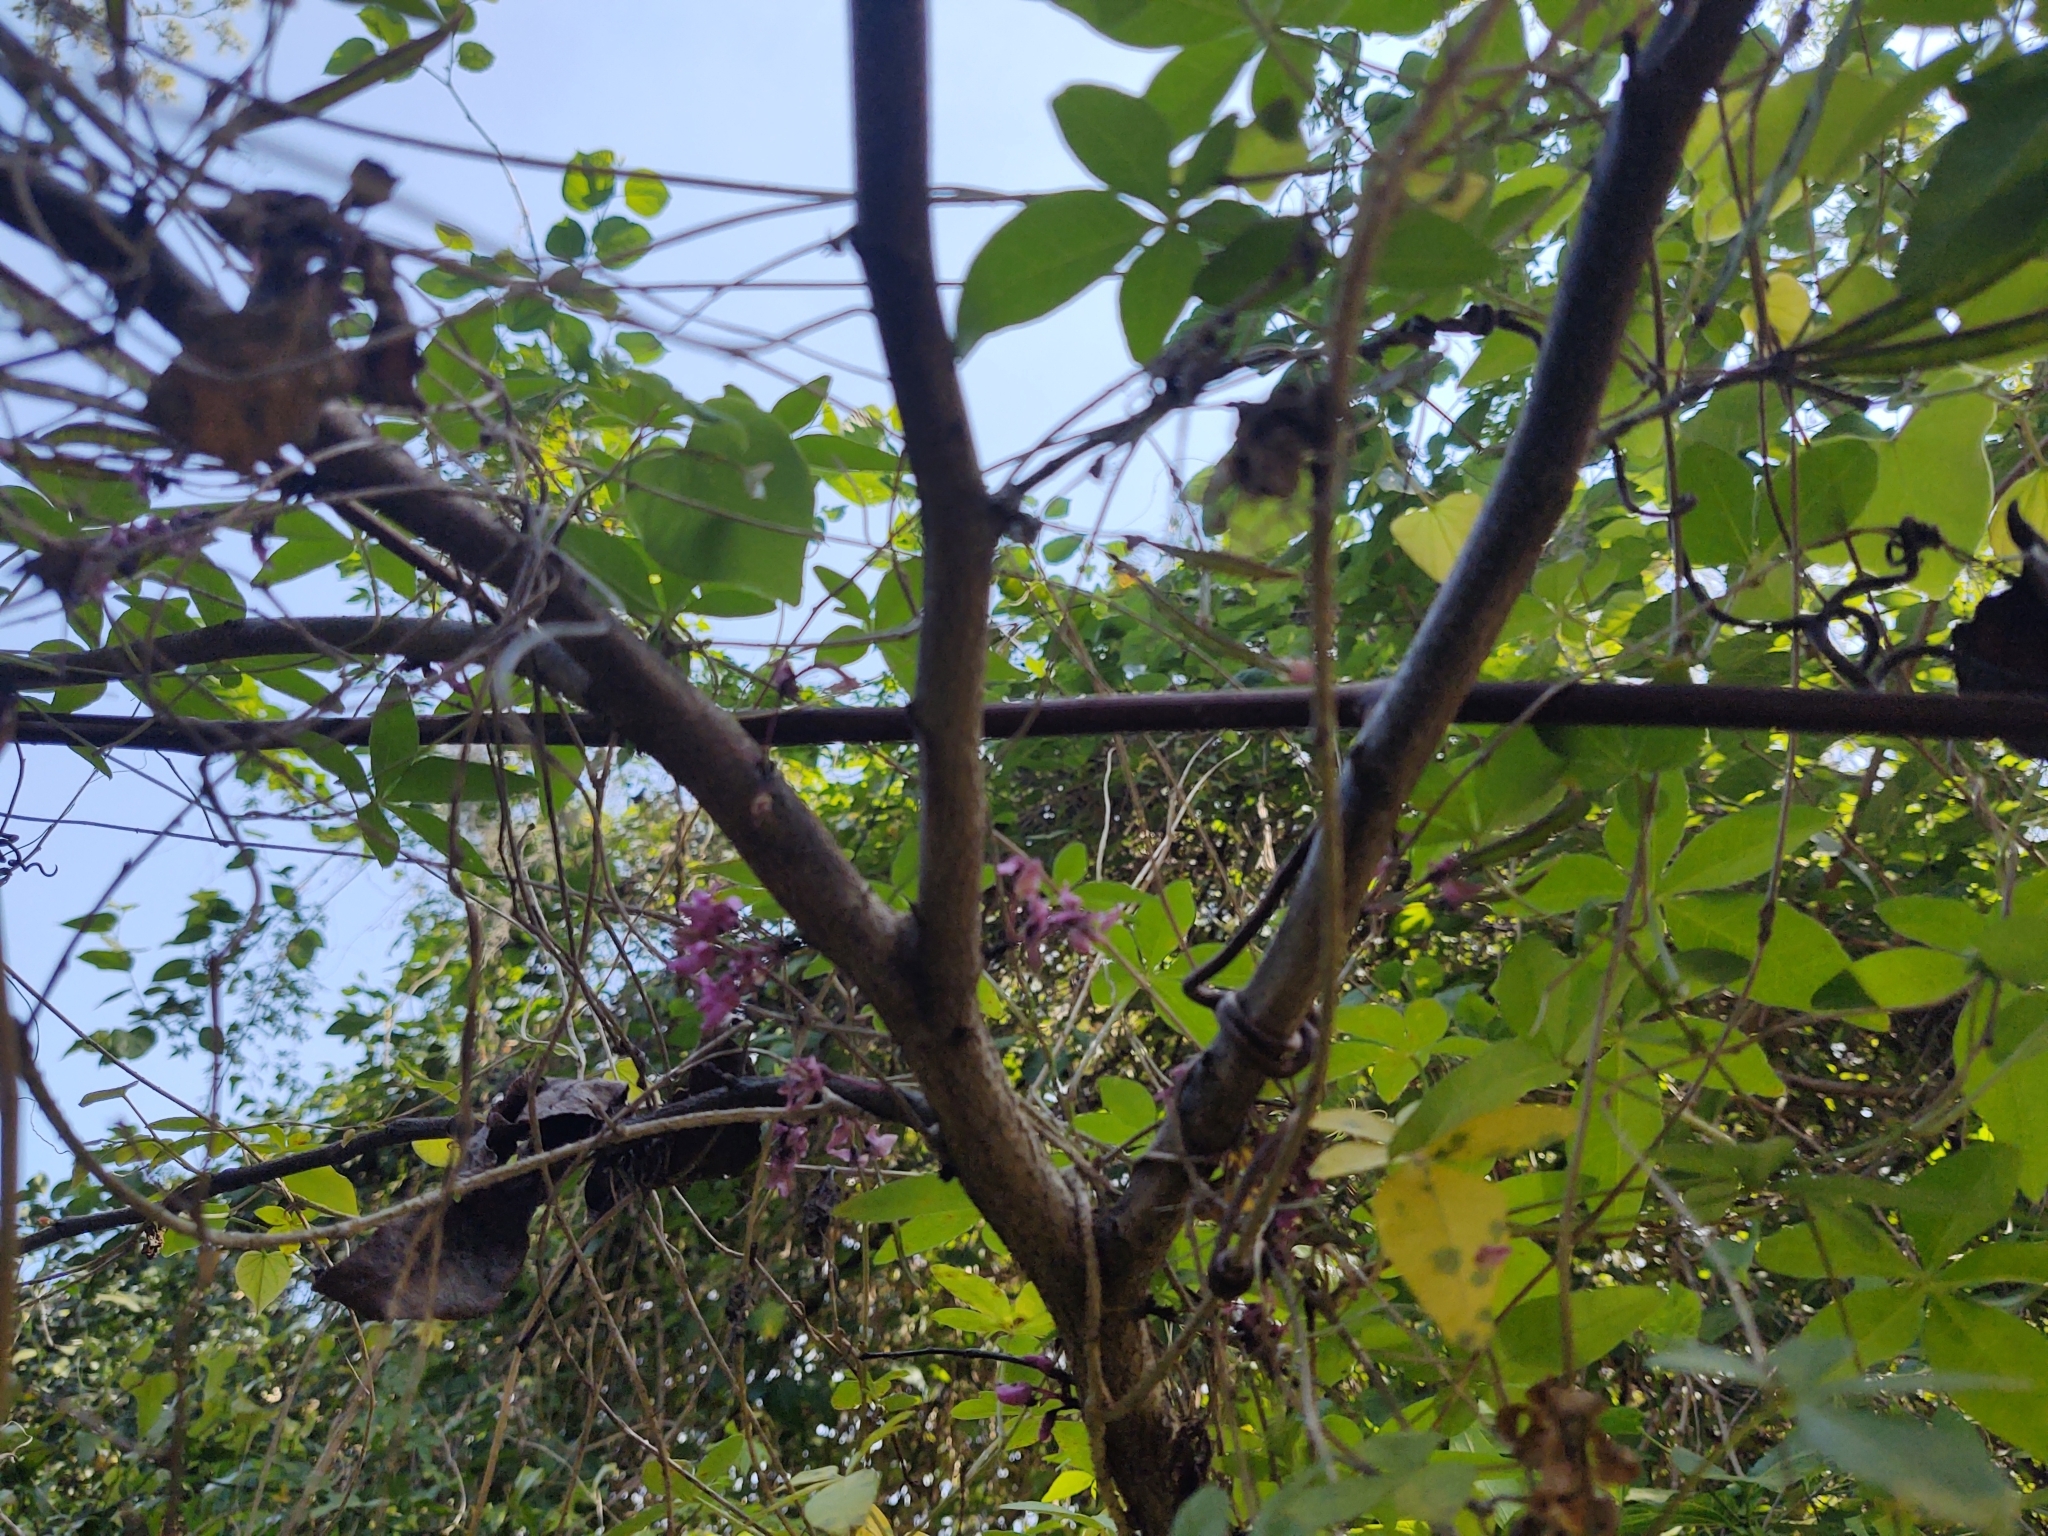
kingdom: Plantae
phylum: Tracheophyta
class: Magnoliopsida
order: Fabales
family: Fabaceae
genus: Cercis
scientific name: Cercis canadensis
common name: Eastern redbud
